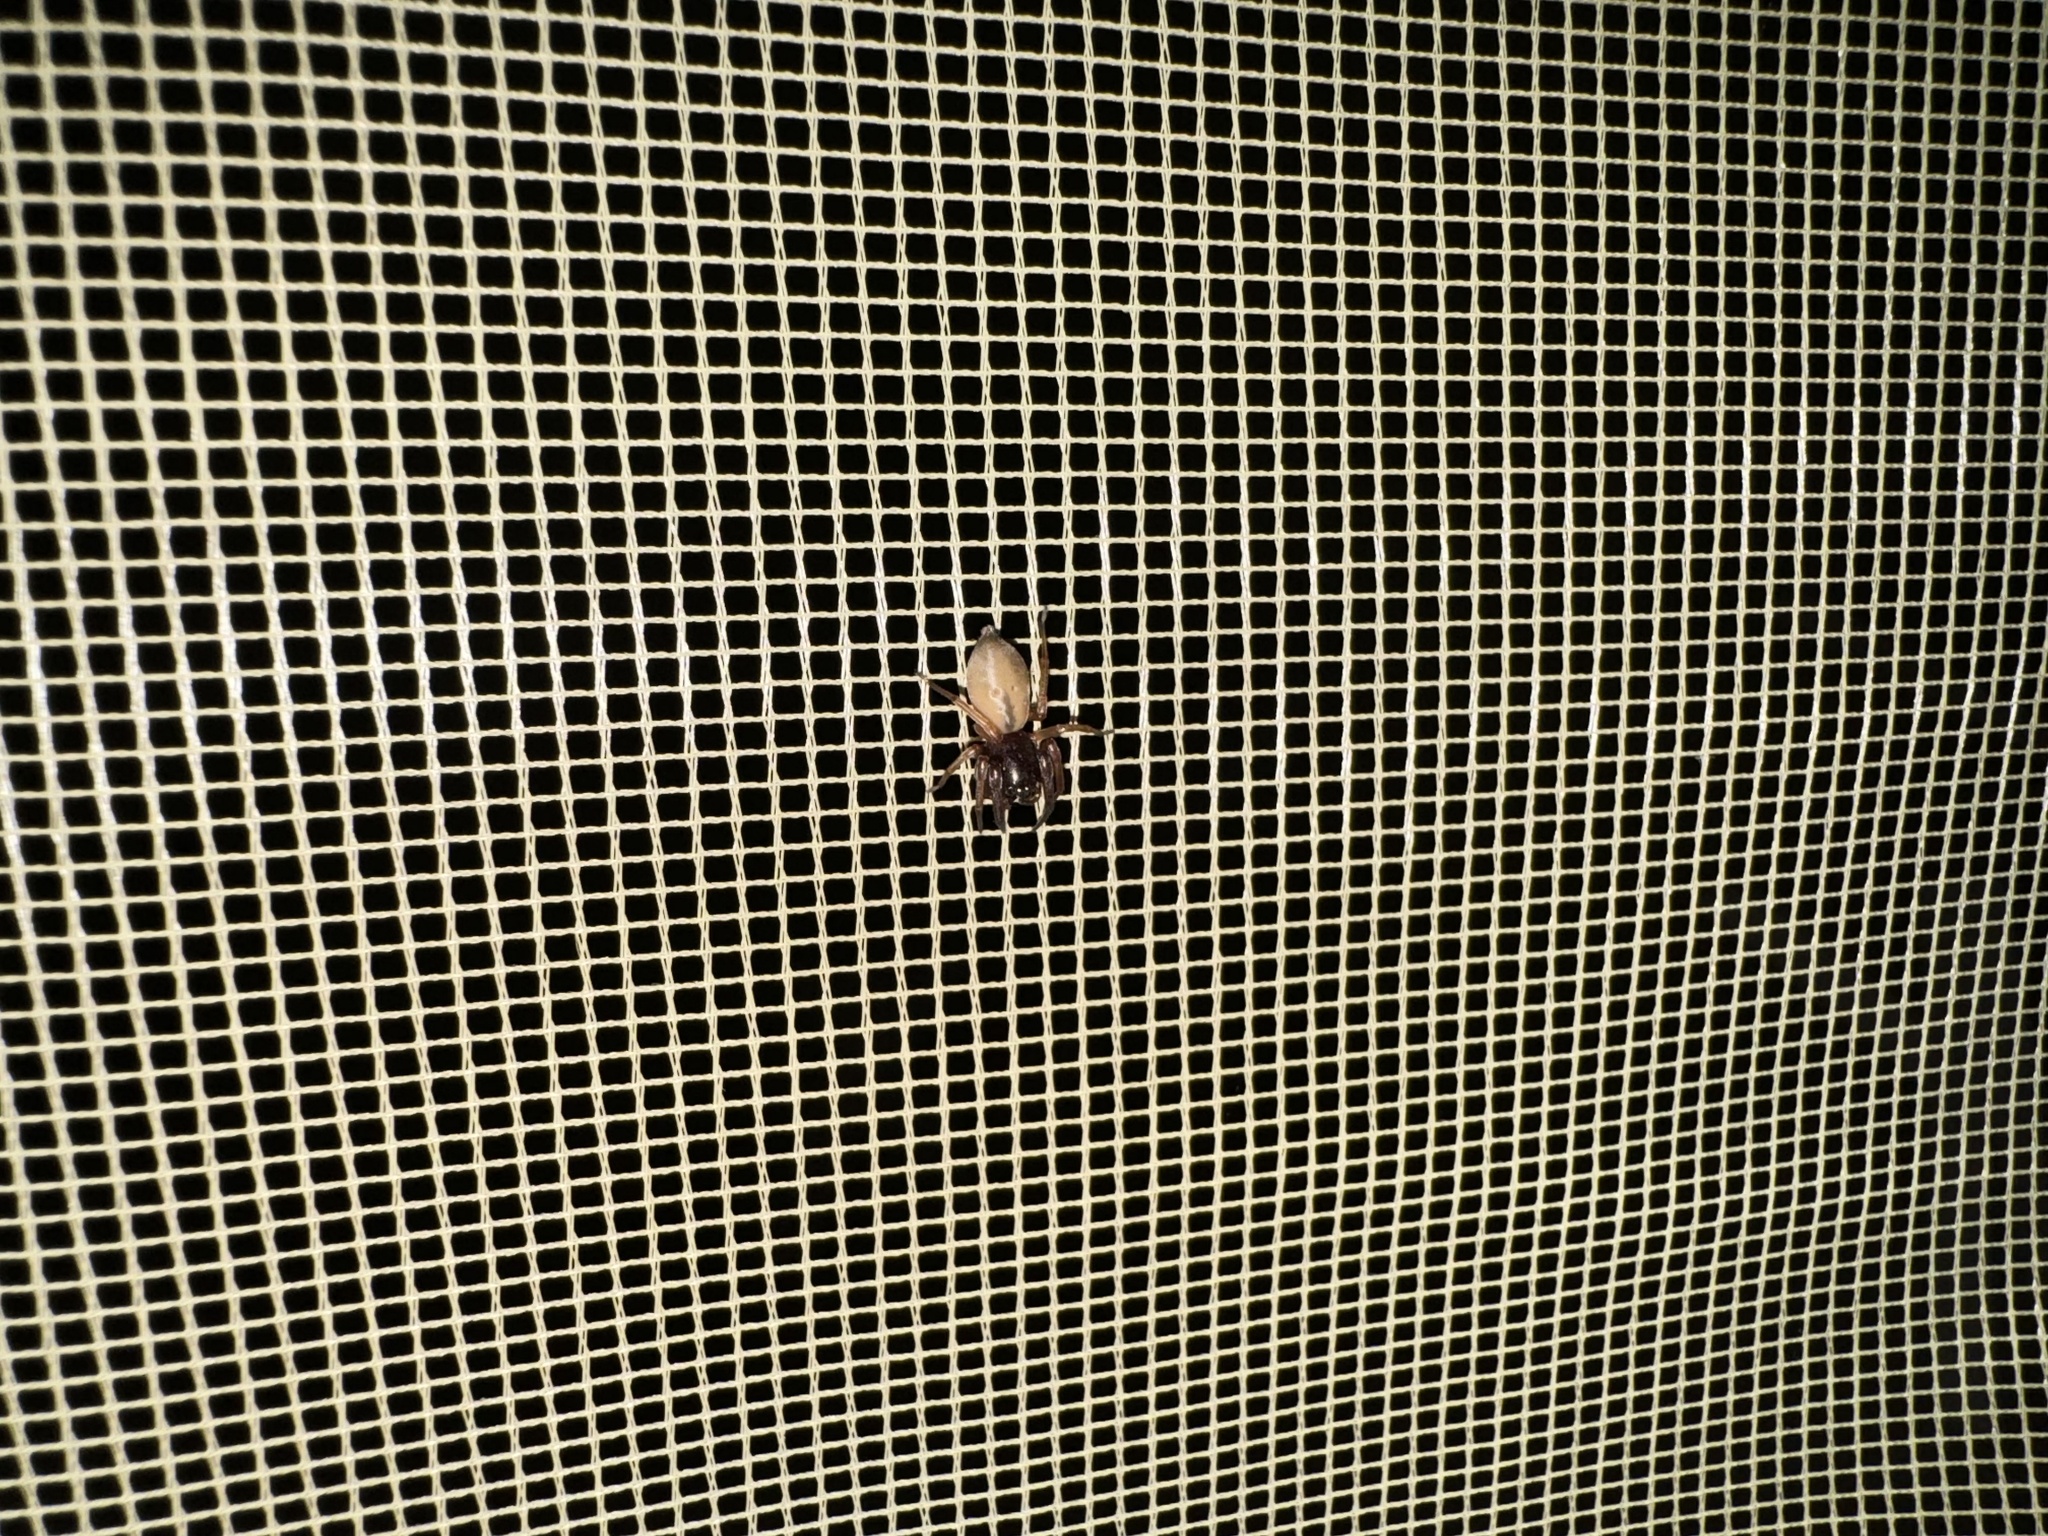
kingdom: Animalia
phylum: Arthropoda
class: Arachnida
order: Araneae
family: Trachelidae
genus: Trachelas
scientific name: Trachelas pacificus
